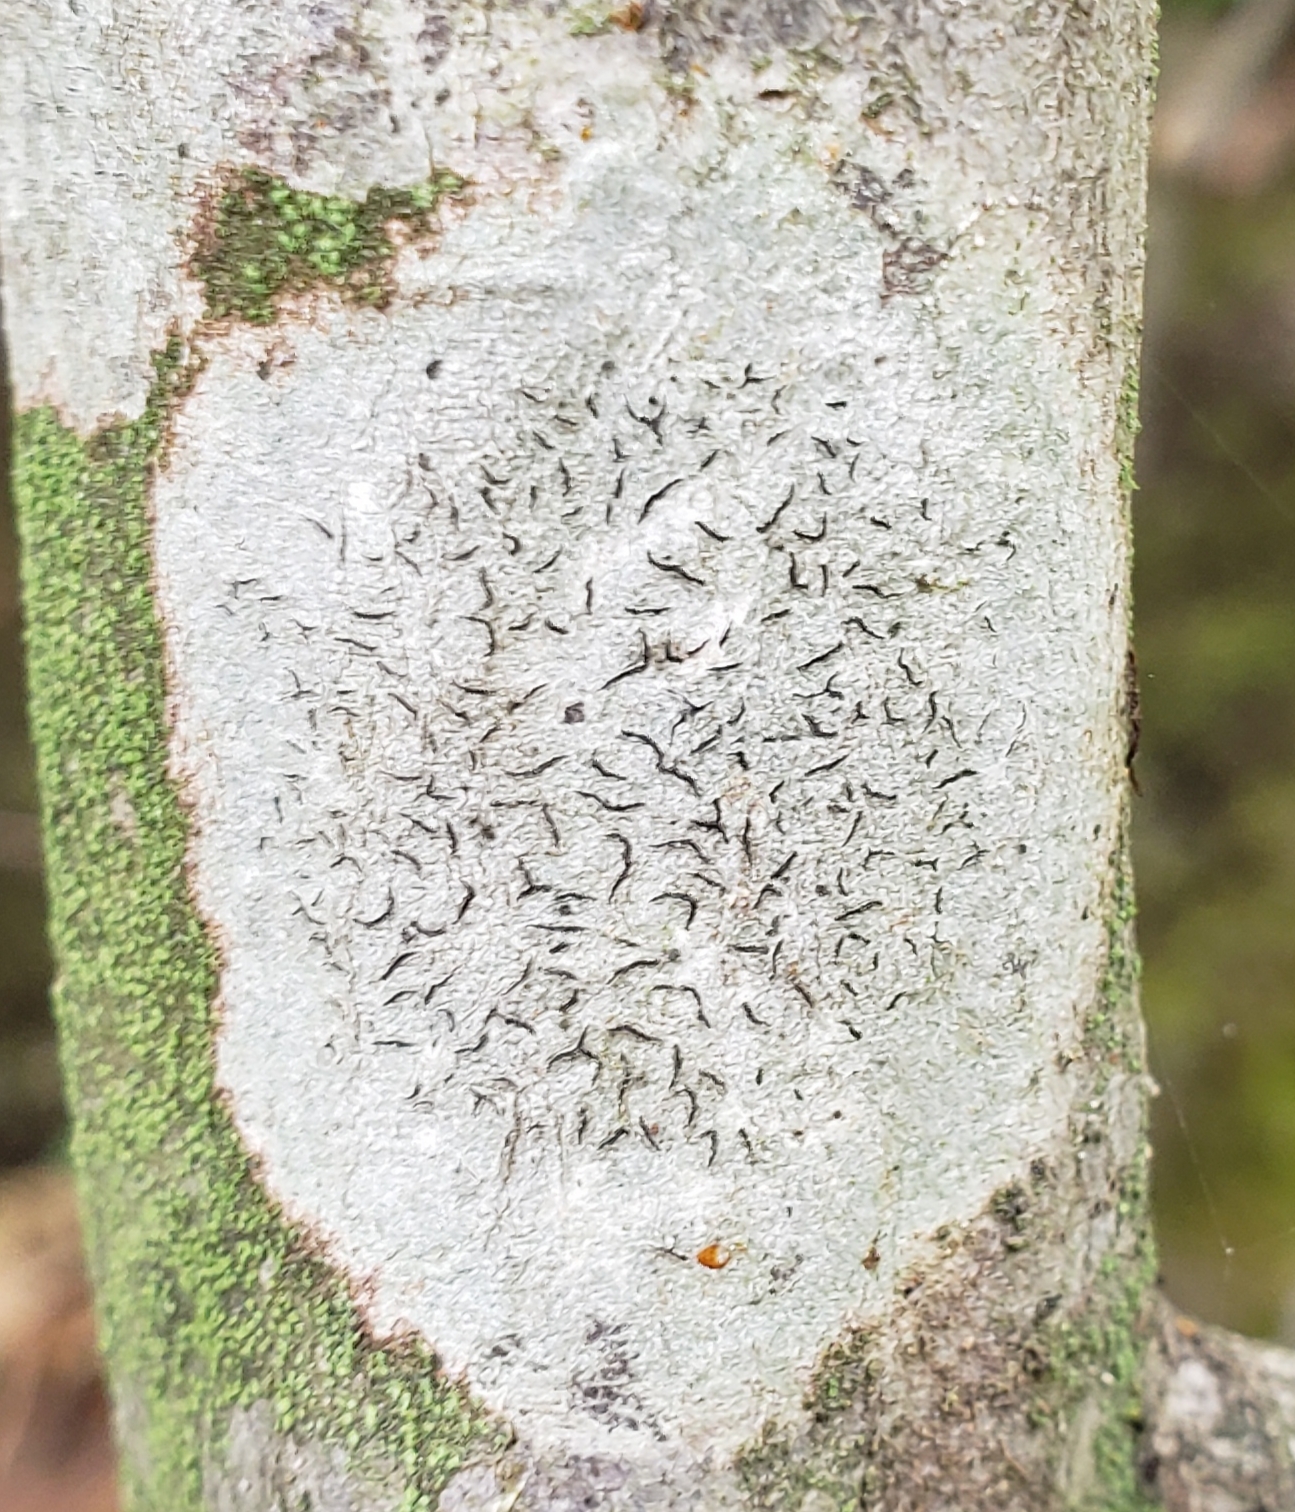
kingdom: Fungi
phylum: Ascomycota
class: Lecanoromycetes
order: Ostropales
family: Graphidaceae
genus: Graphis
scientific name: Graphis scripta
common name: Script lichen
